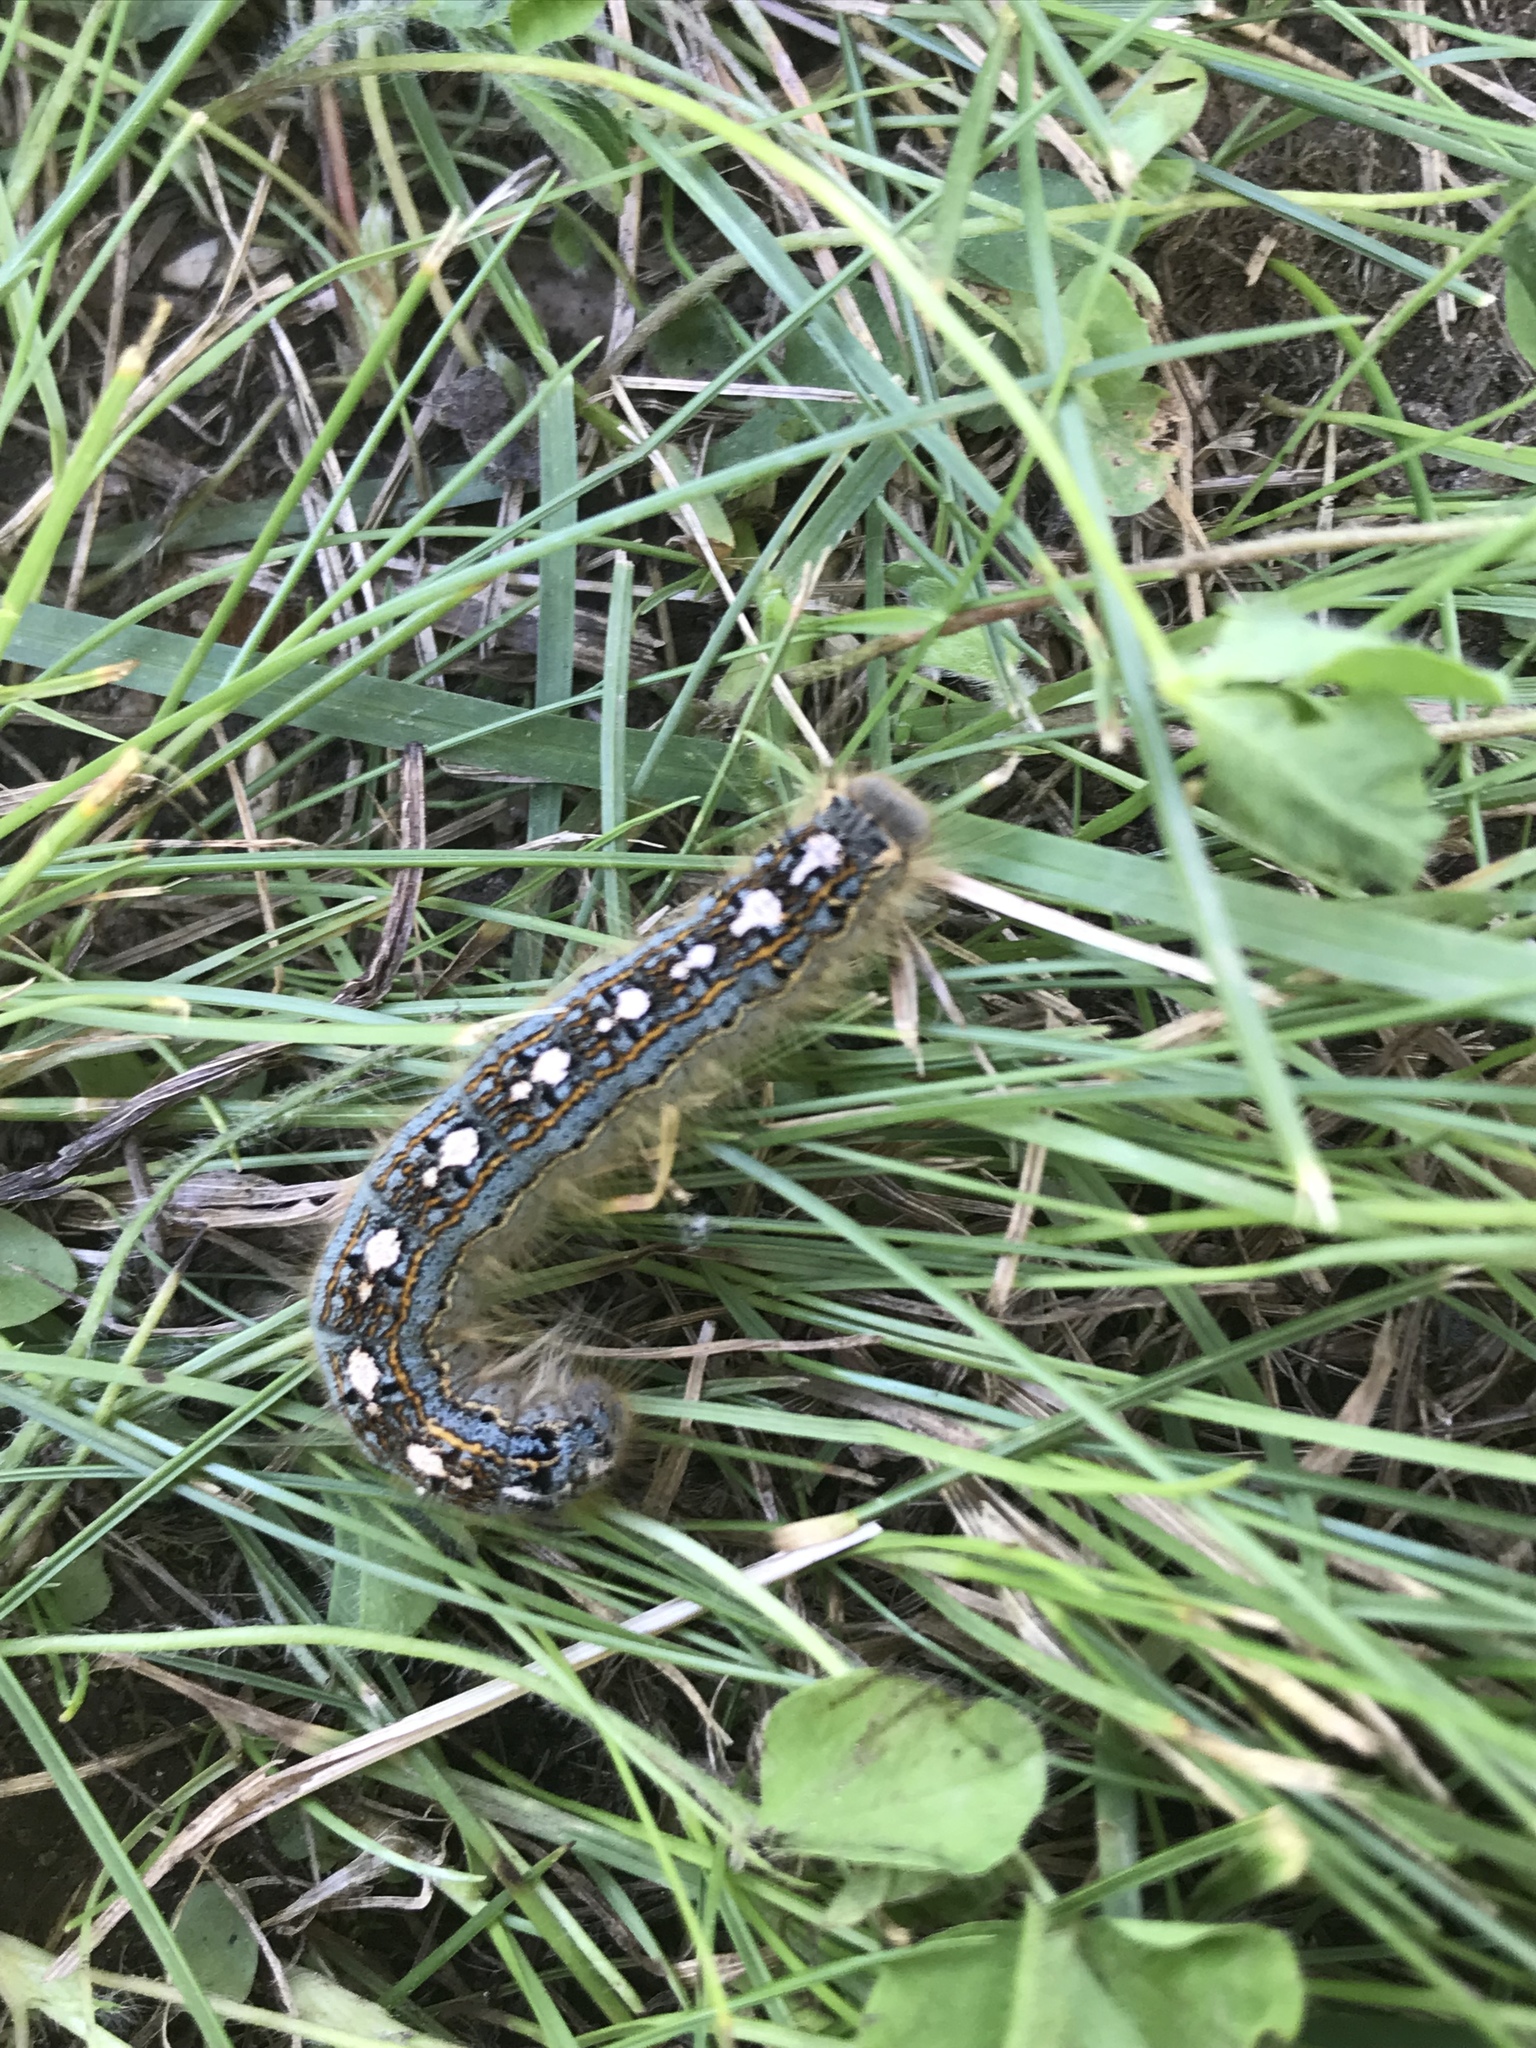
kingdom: Animalia
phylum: Arthropoda
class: Insecta
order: Lepidoptera
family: Lasiocampidae
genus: Malacosoma
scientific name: Malacosoma disstria
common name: Forest tent caterpillar
